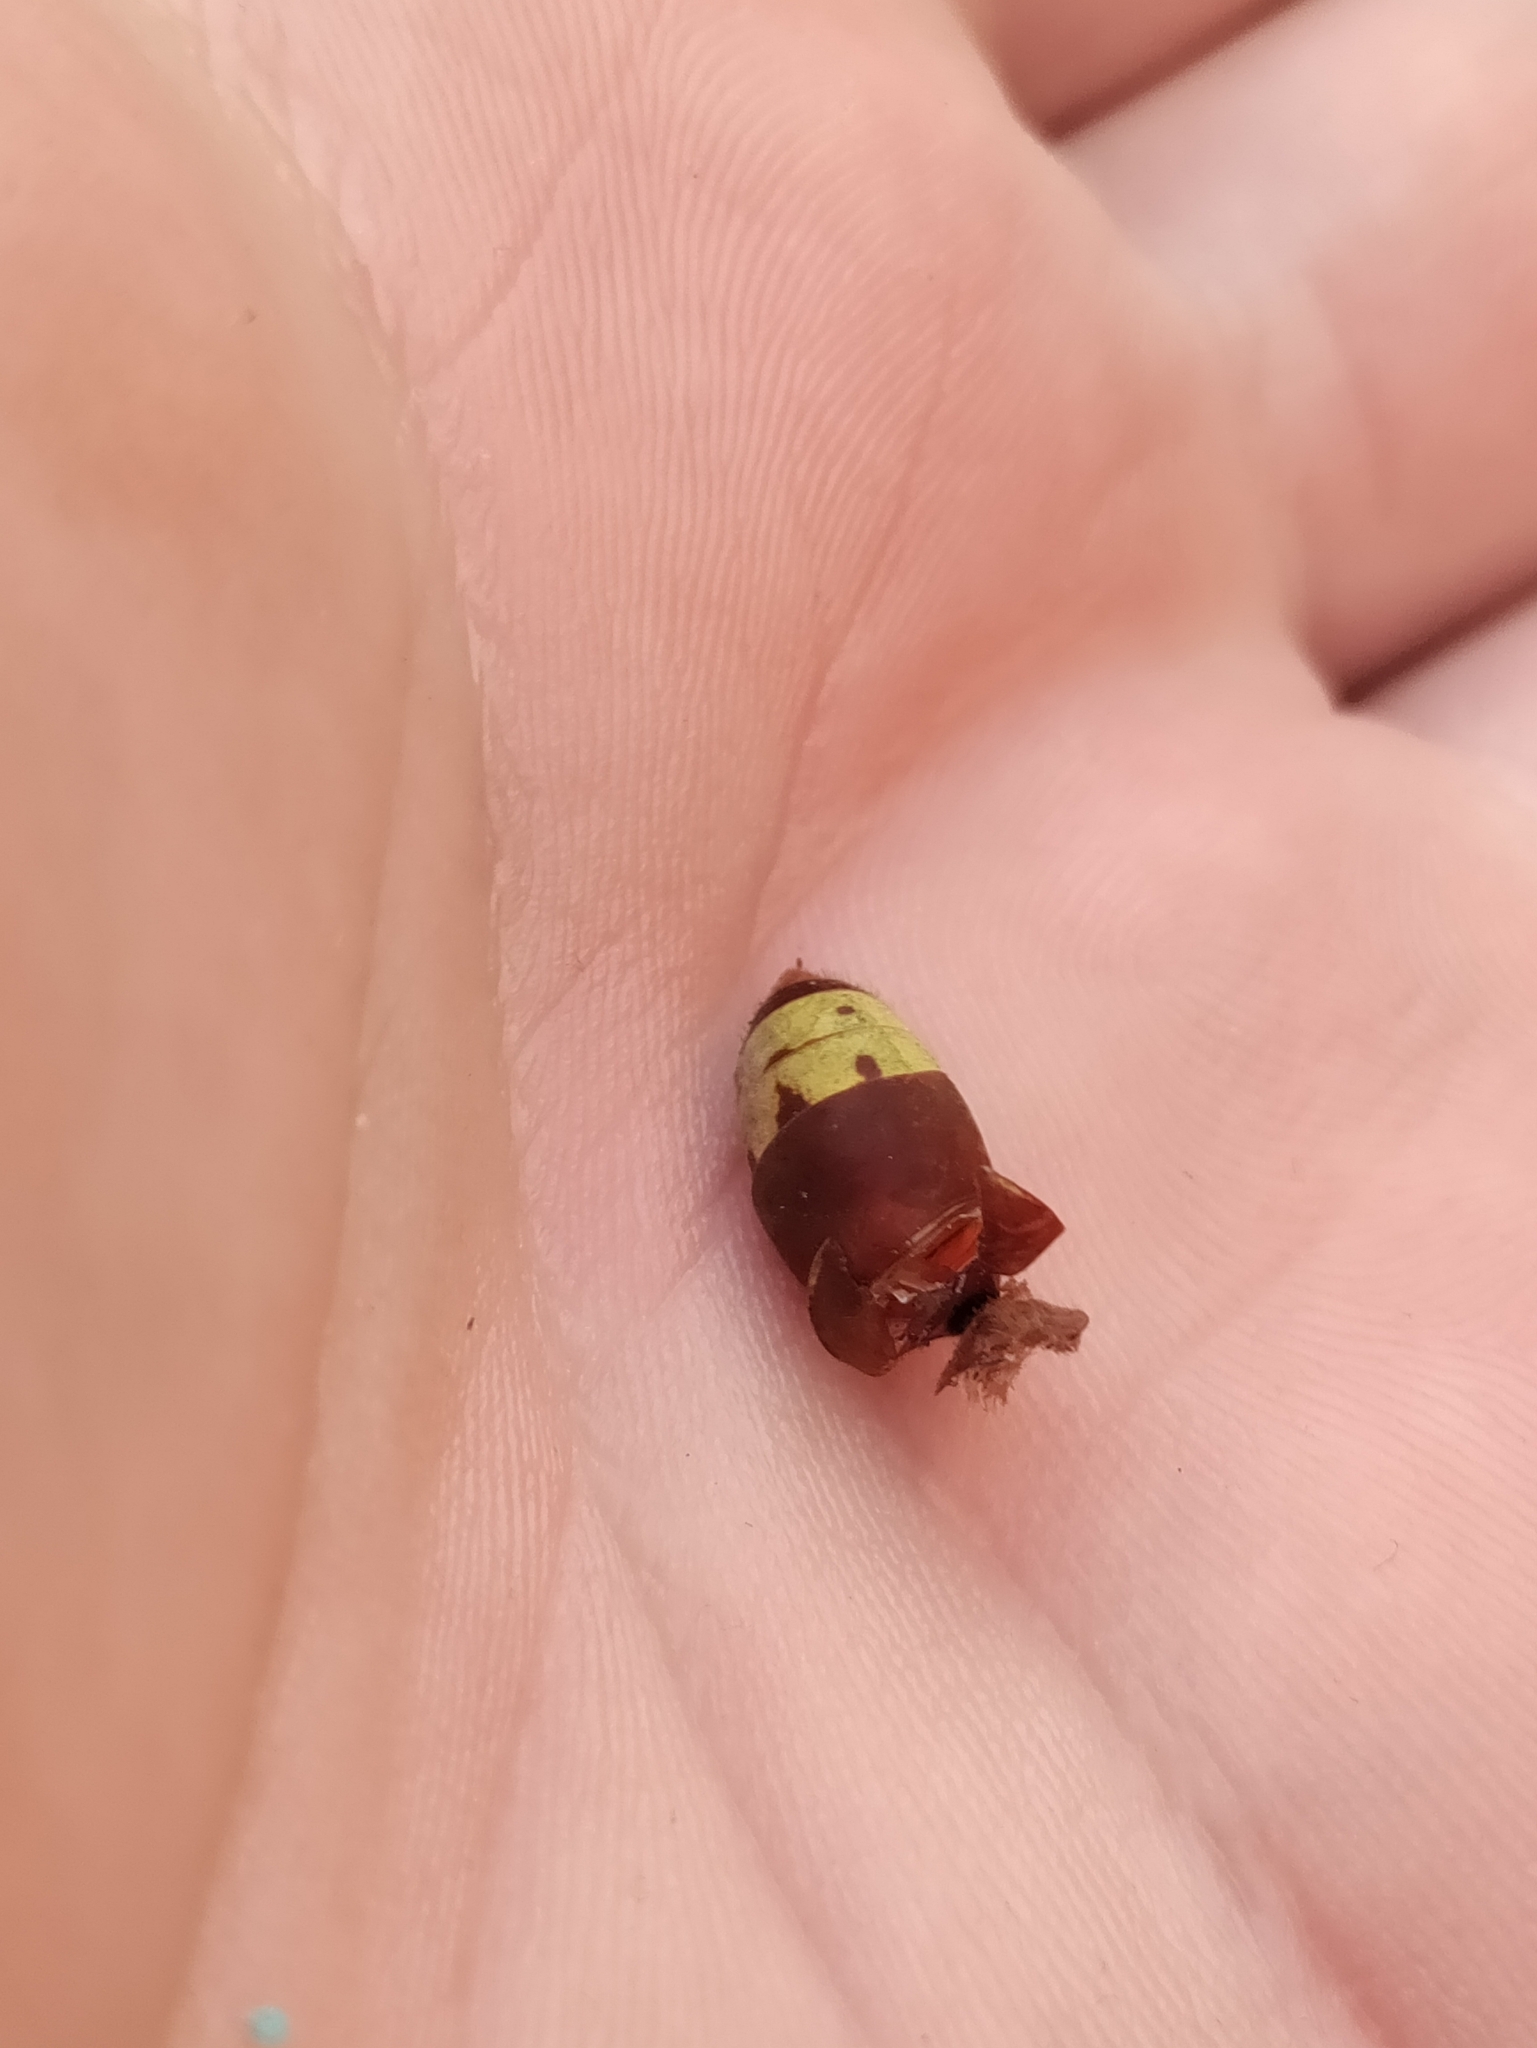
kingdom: Animalia
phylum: Arthropoda
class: Insecta
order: Hymenoptera
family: Vespidae
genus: Vespa
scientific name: Vespa orientalis
